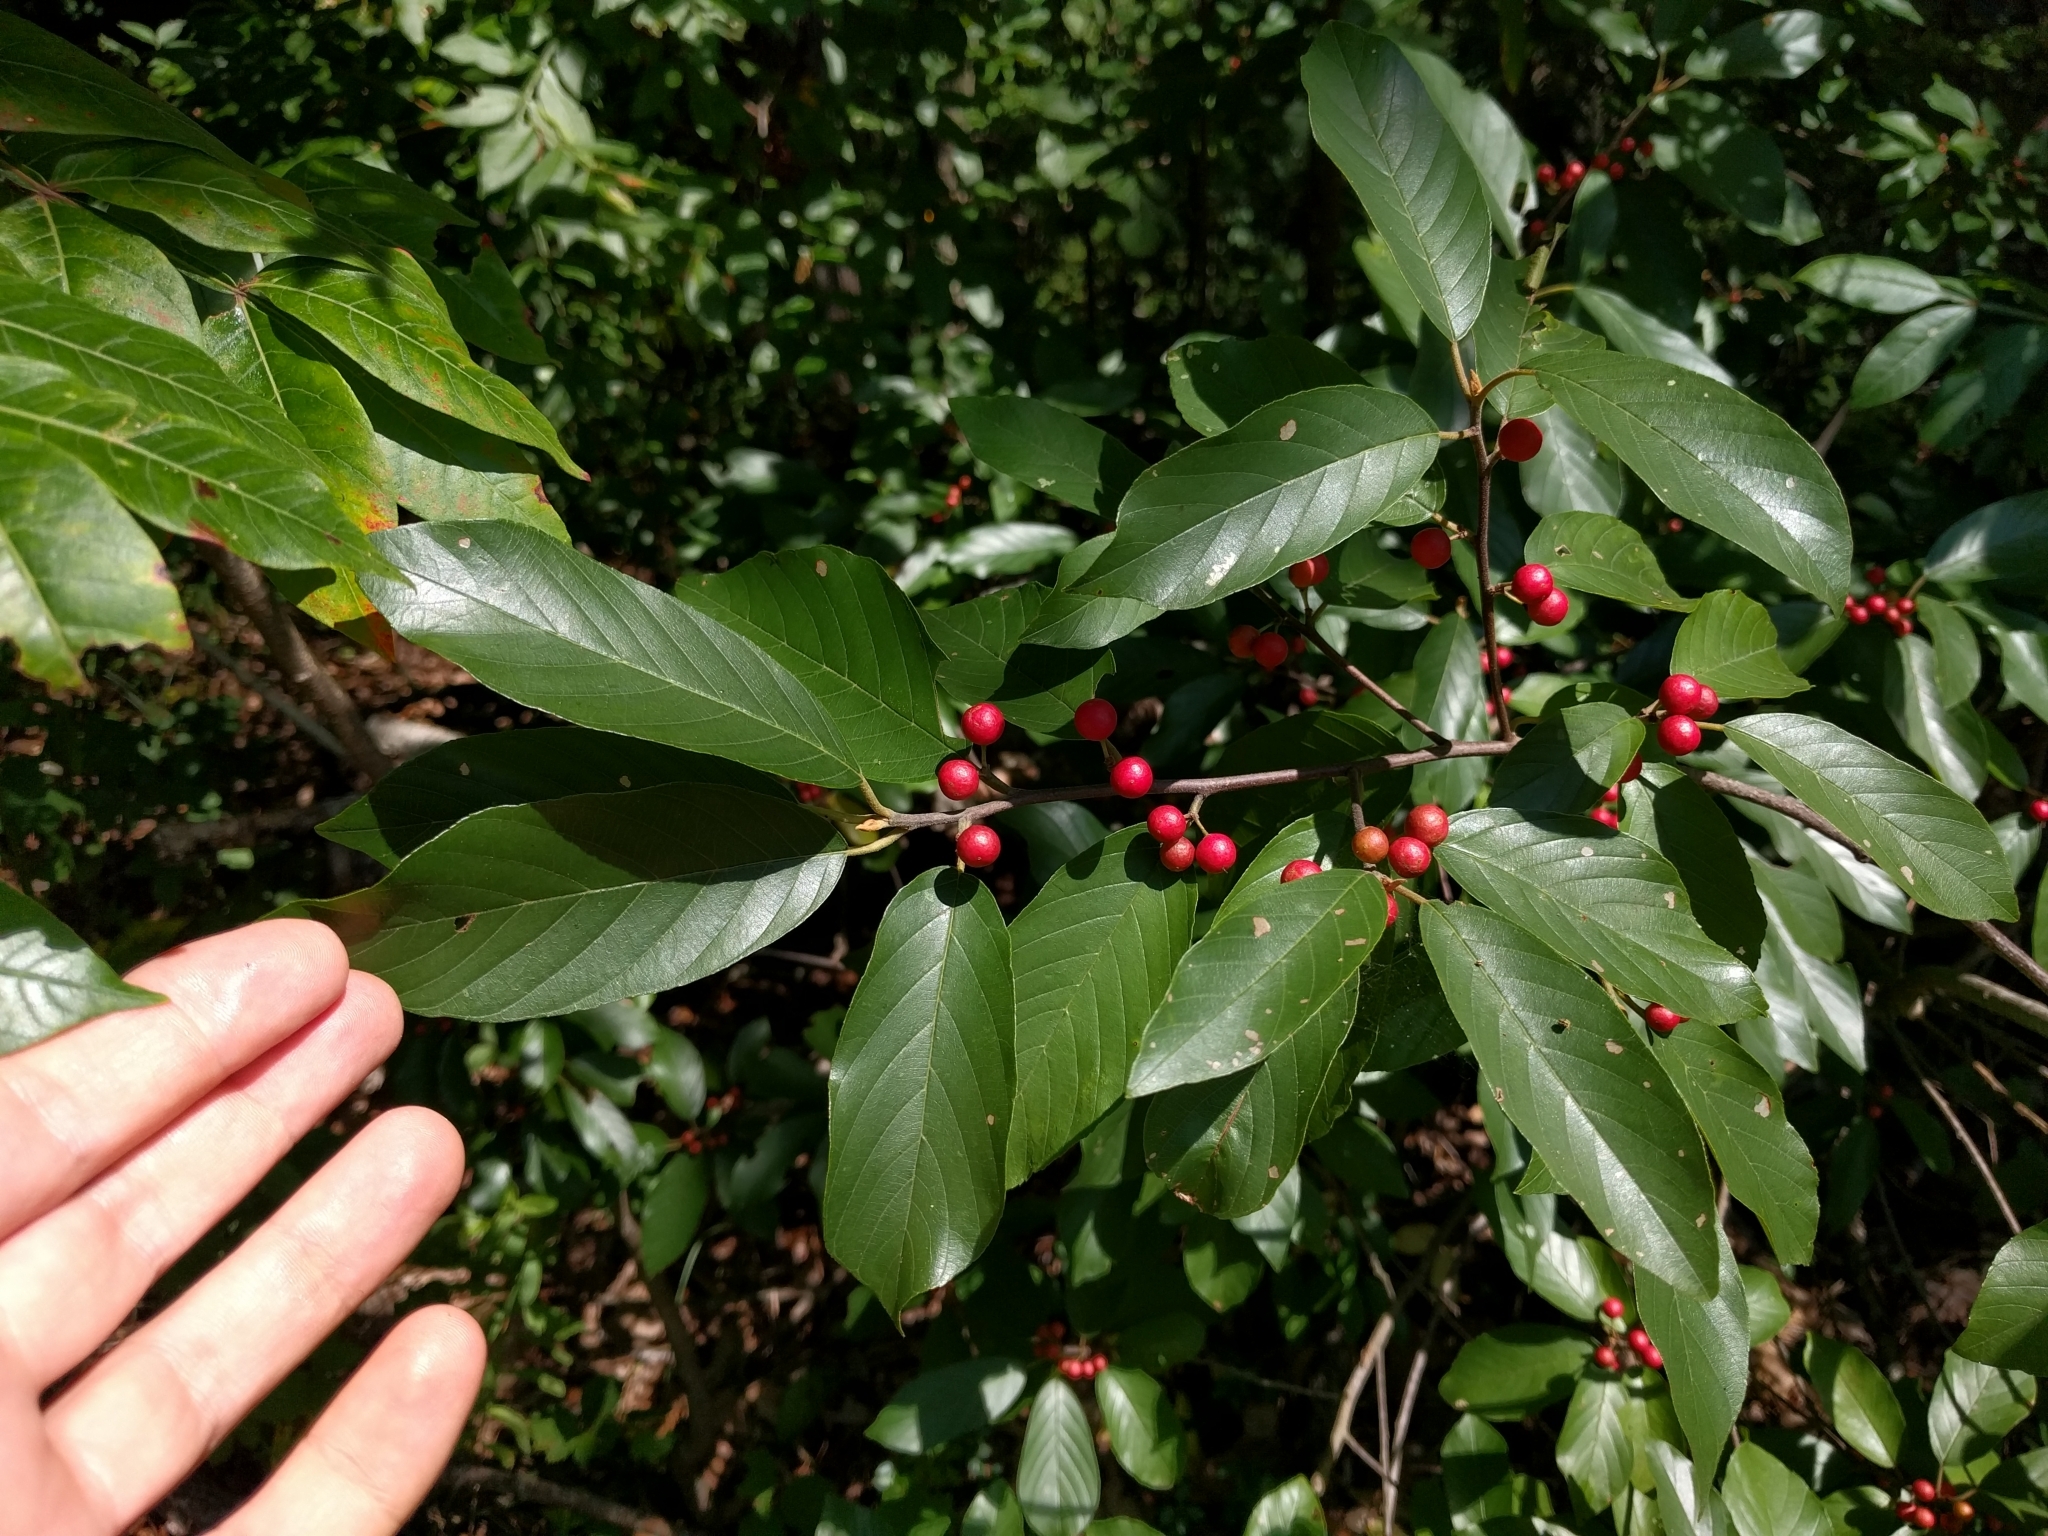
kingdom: Plantae
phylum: Tracheophyta
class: Magnoliopsida
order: Rosales
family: Rhamnaceae
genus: Frangula
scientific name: Frangula caroliniana
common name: Carolina buckthorn
